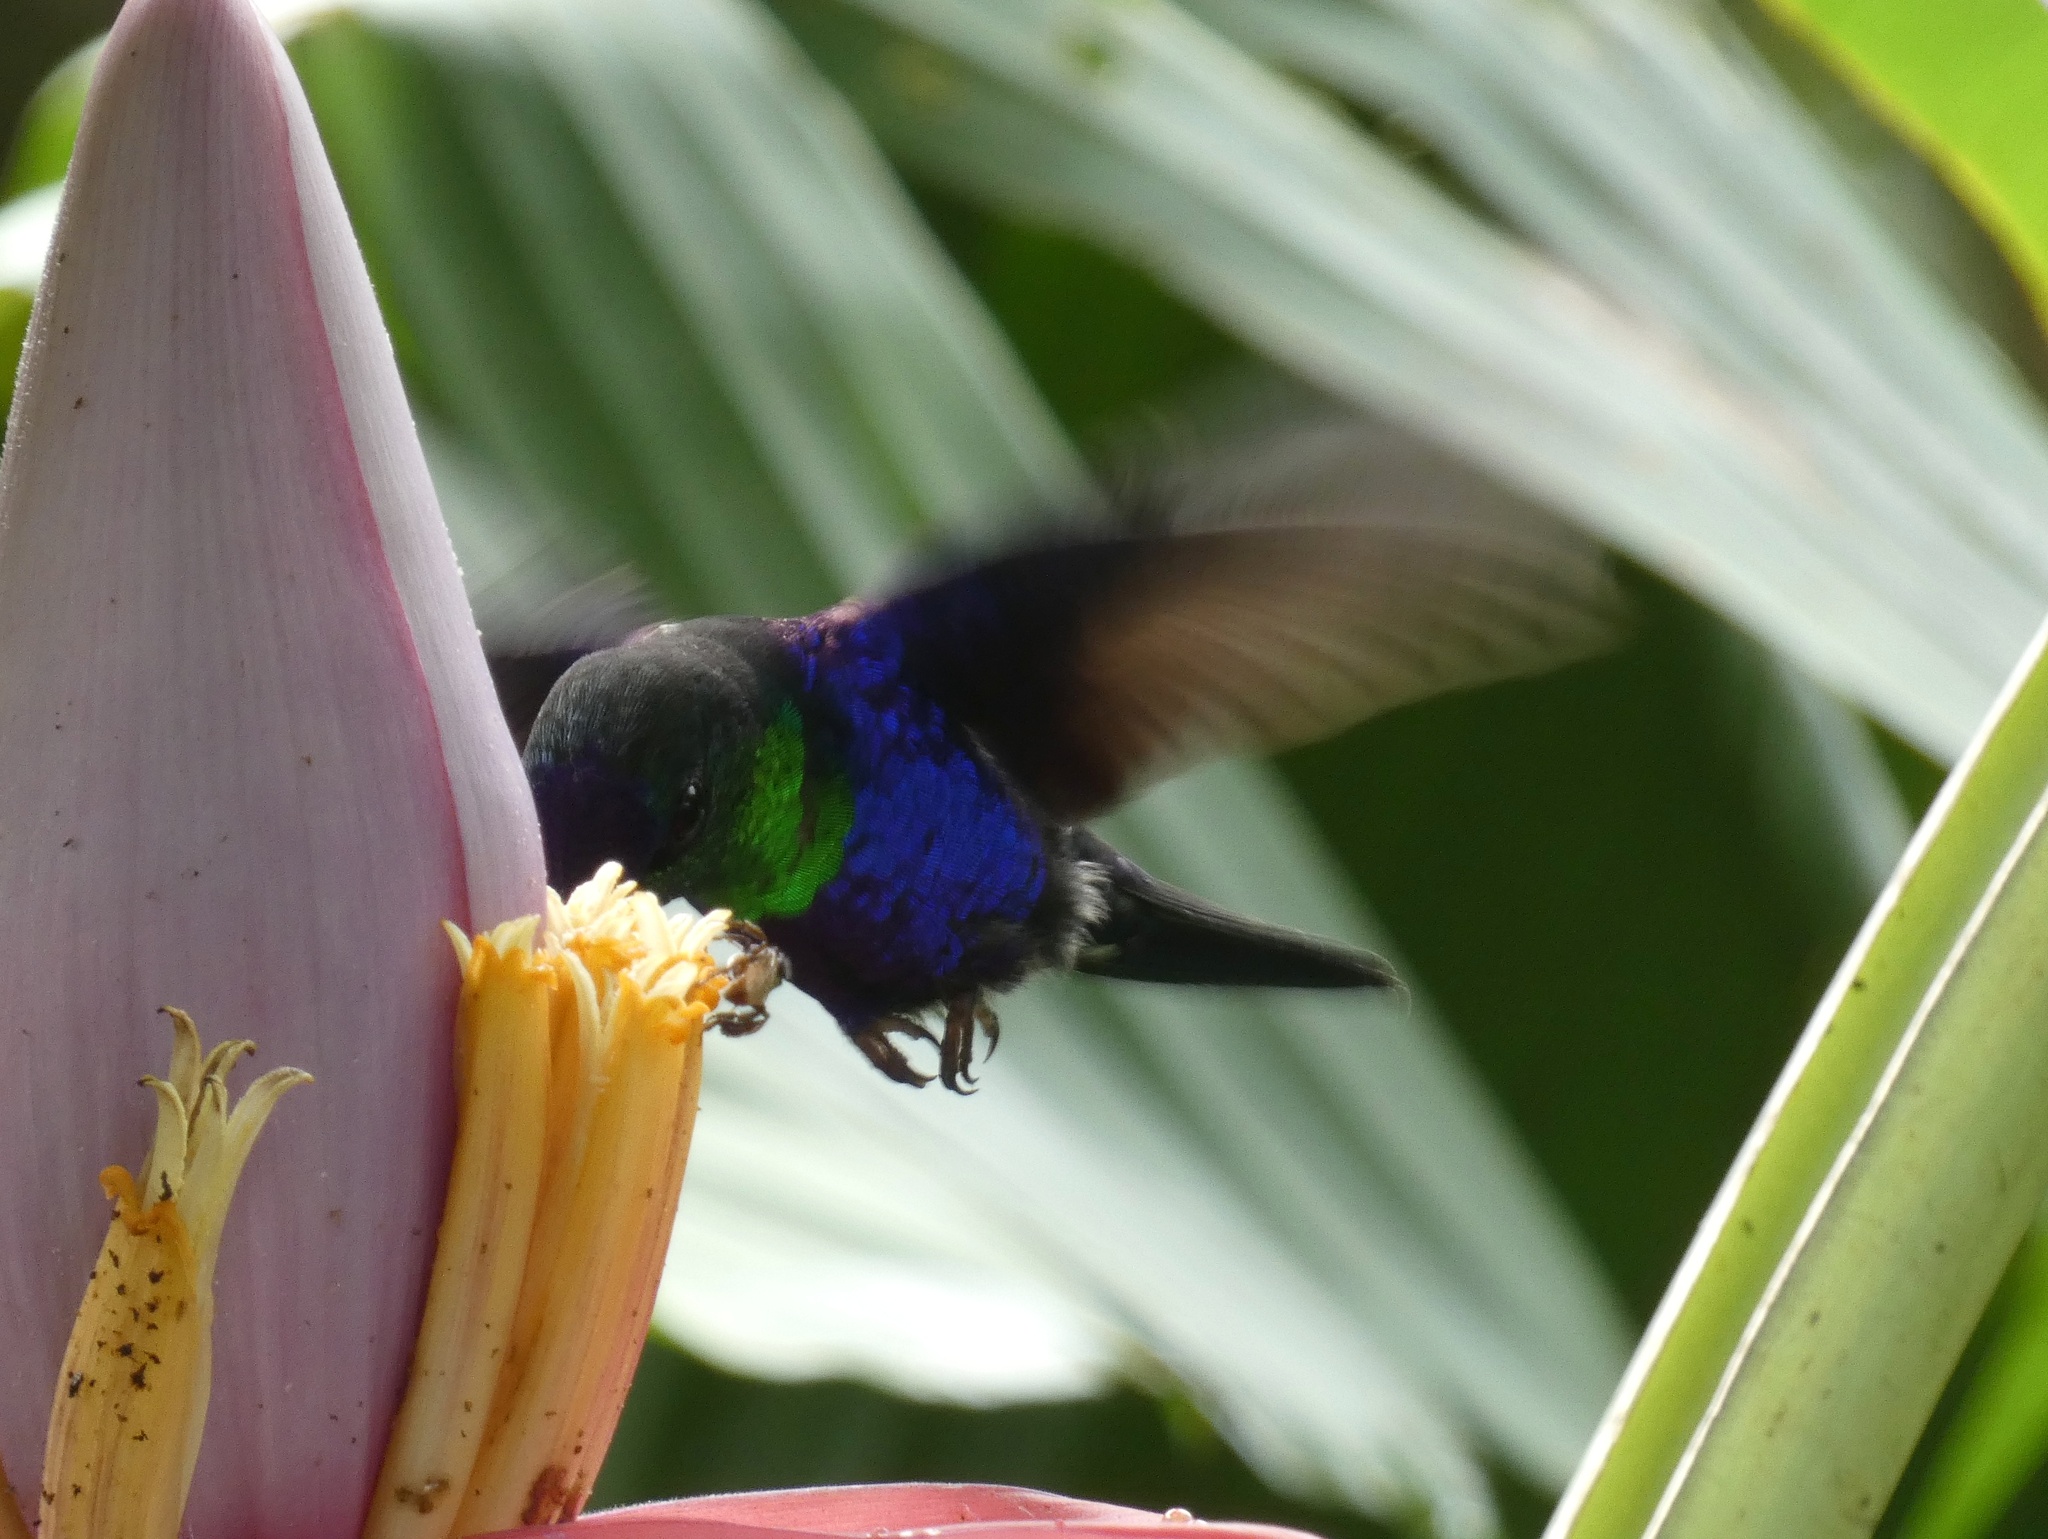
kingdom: Animalia
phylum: Chordata
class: Aves
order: Apodiformes
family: Trochilidae
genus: Thalurania
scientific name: Thalurania colombica
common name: Crowned woodnymph
